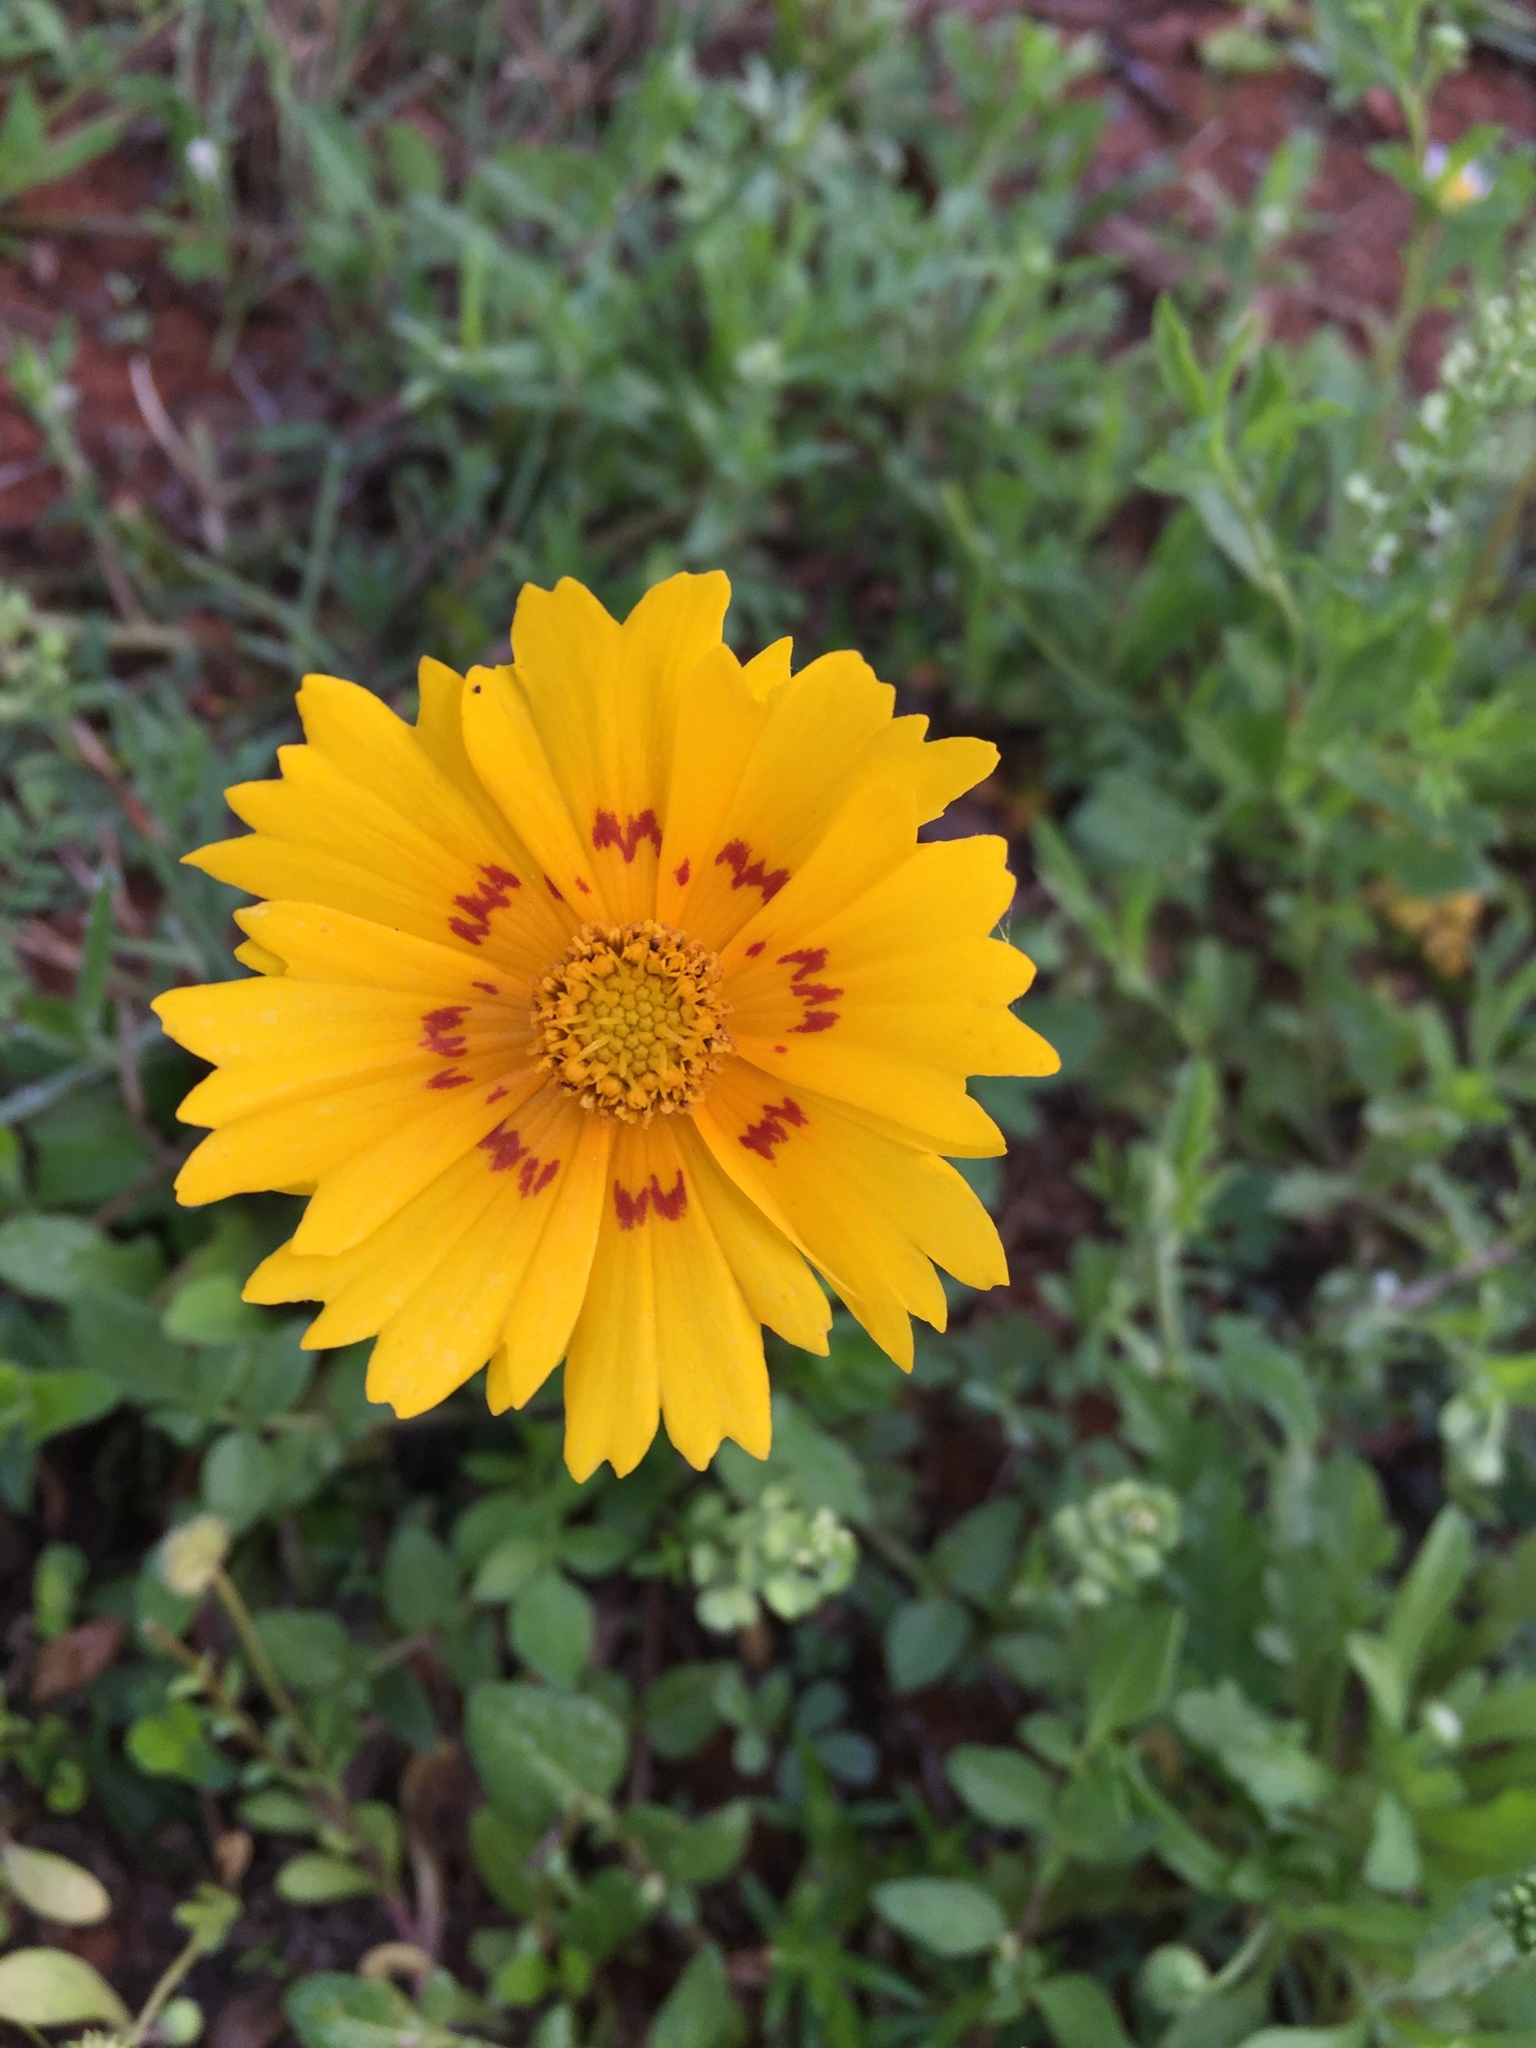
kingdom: Plantae
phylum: Tracheophyta
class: Magnoliopsida
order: Asterales
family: Asteraceae
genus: Coreopsis
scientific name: Coreopsis nuecensis
